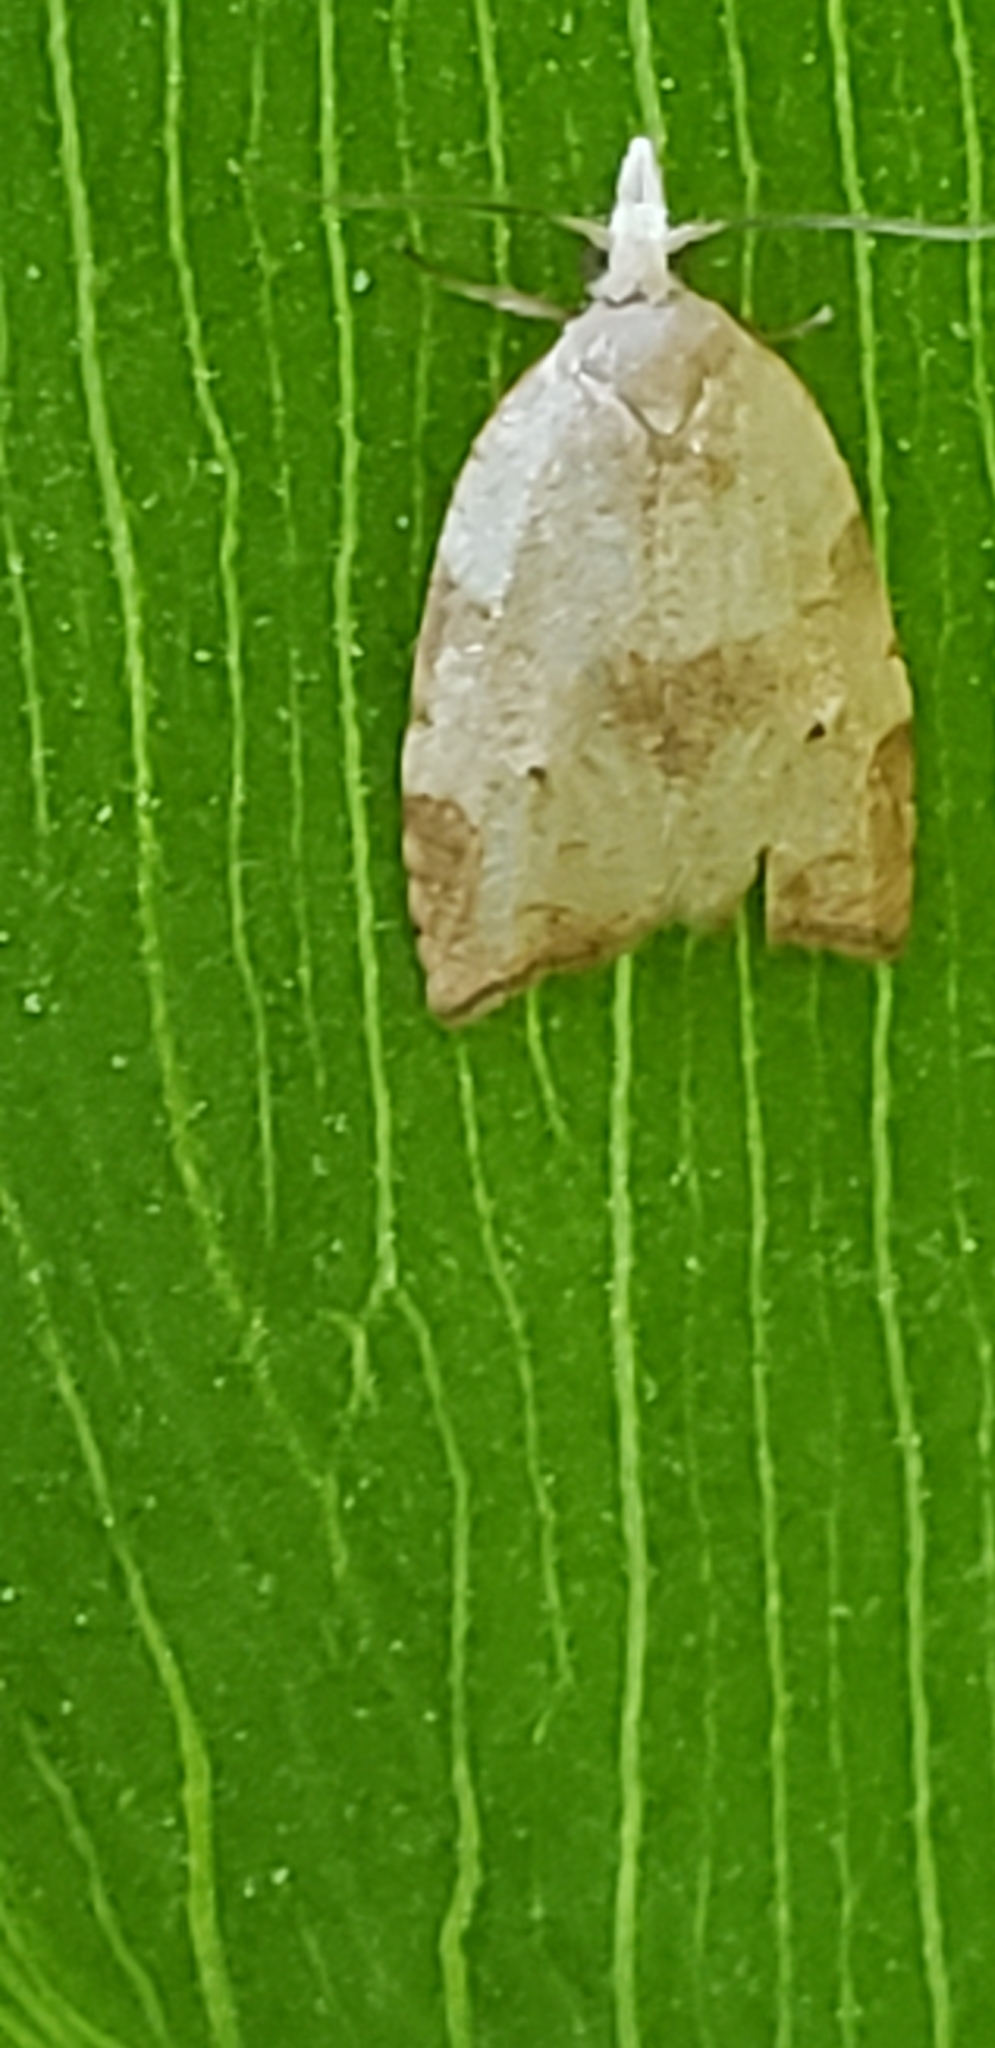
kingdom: Animalia
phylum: Arthropoda
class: Insecta
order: Lepidoptera
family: Tortricidae
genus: Coelostathma
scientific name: Coelostathma discopunctana
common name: Batman moth
